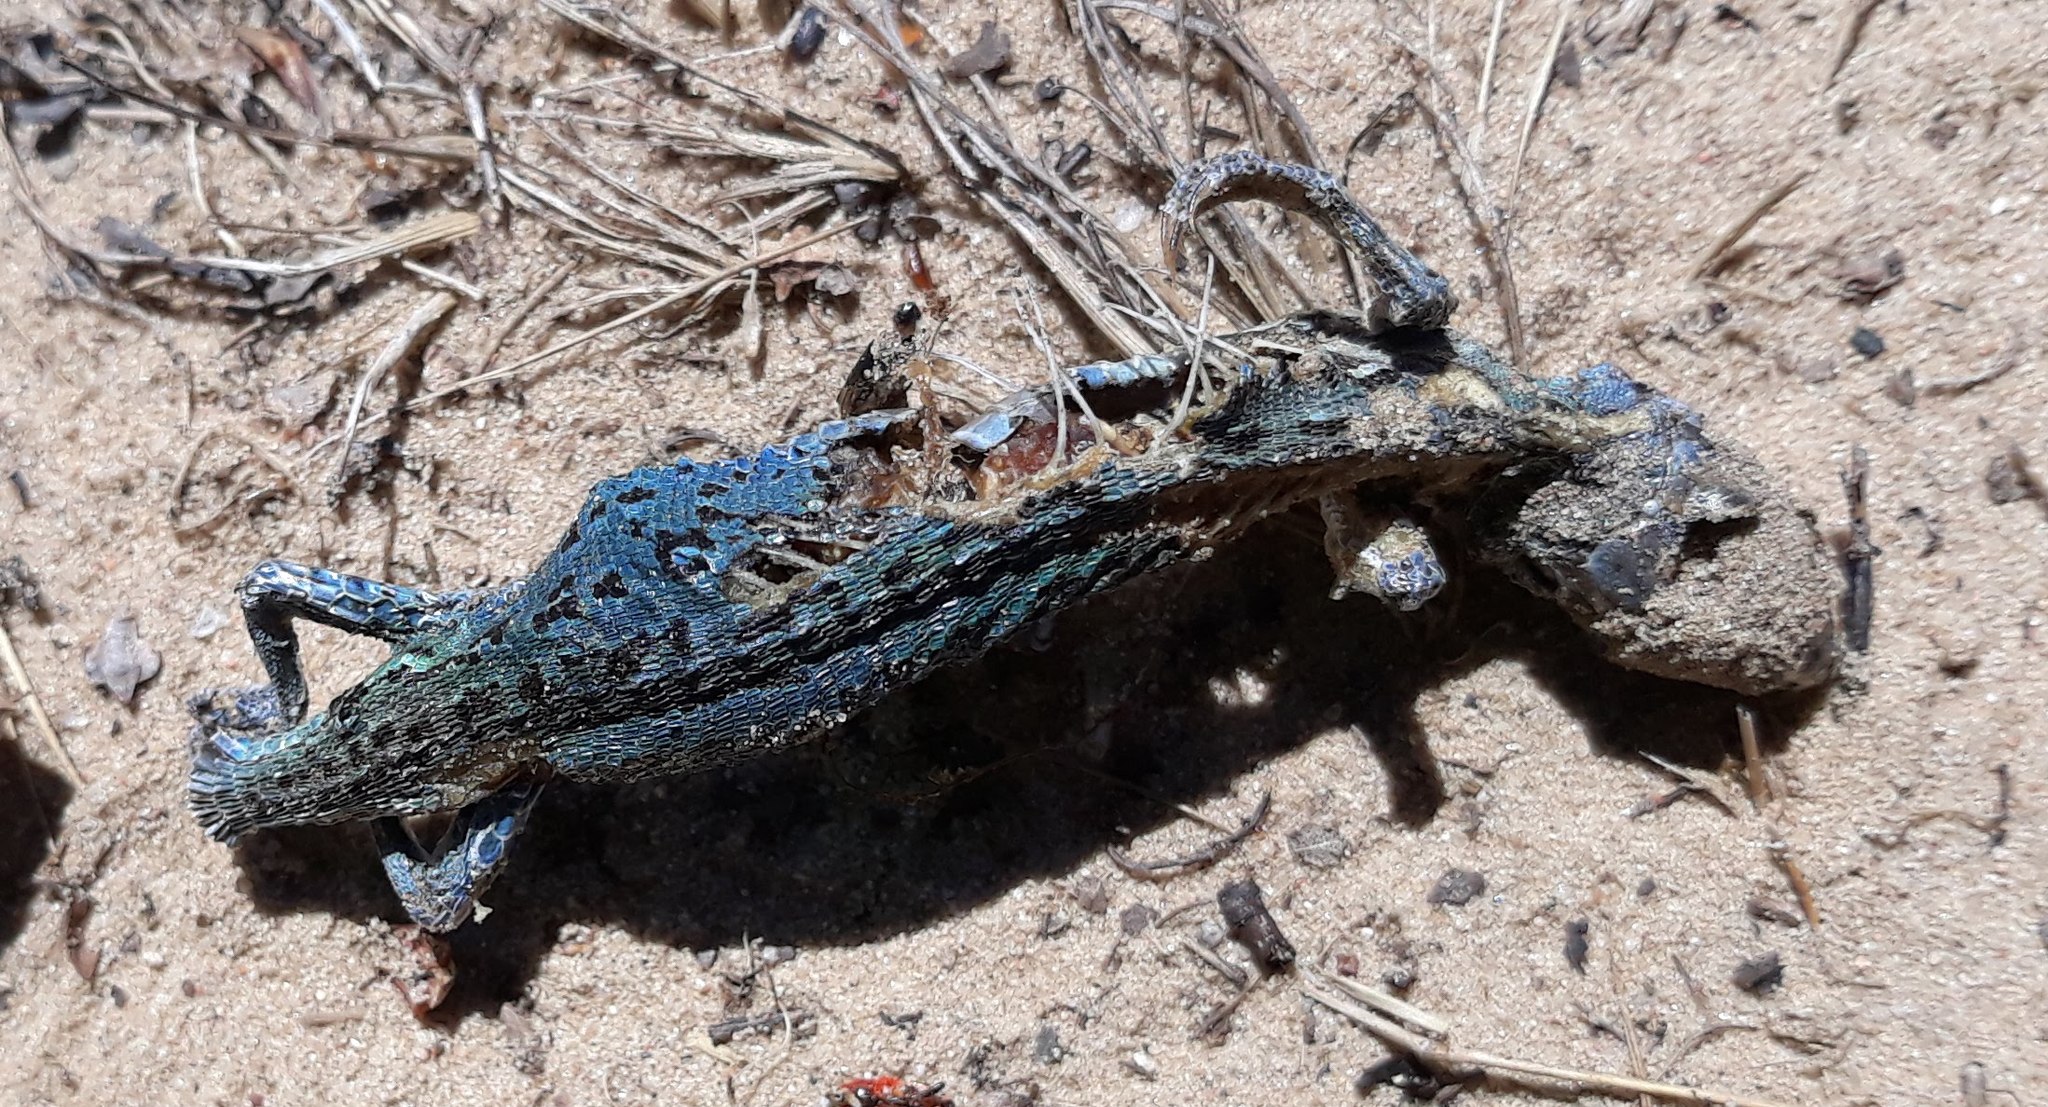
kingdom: Animalia
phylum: Chordata
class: Squamata
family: Lacertidae
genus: Lacerta
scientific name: Lacerta agilis
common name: Sand lizard
